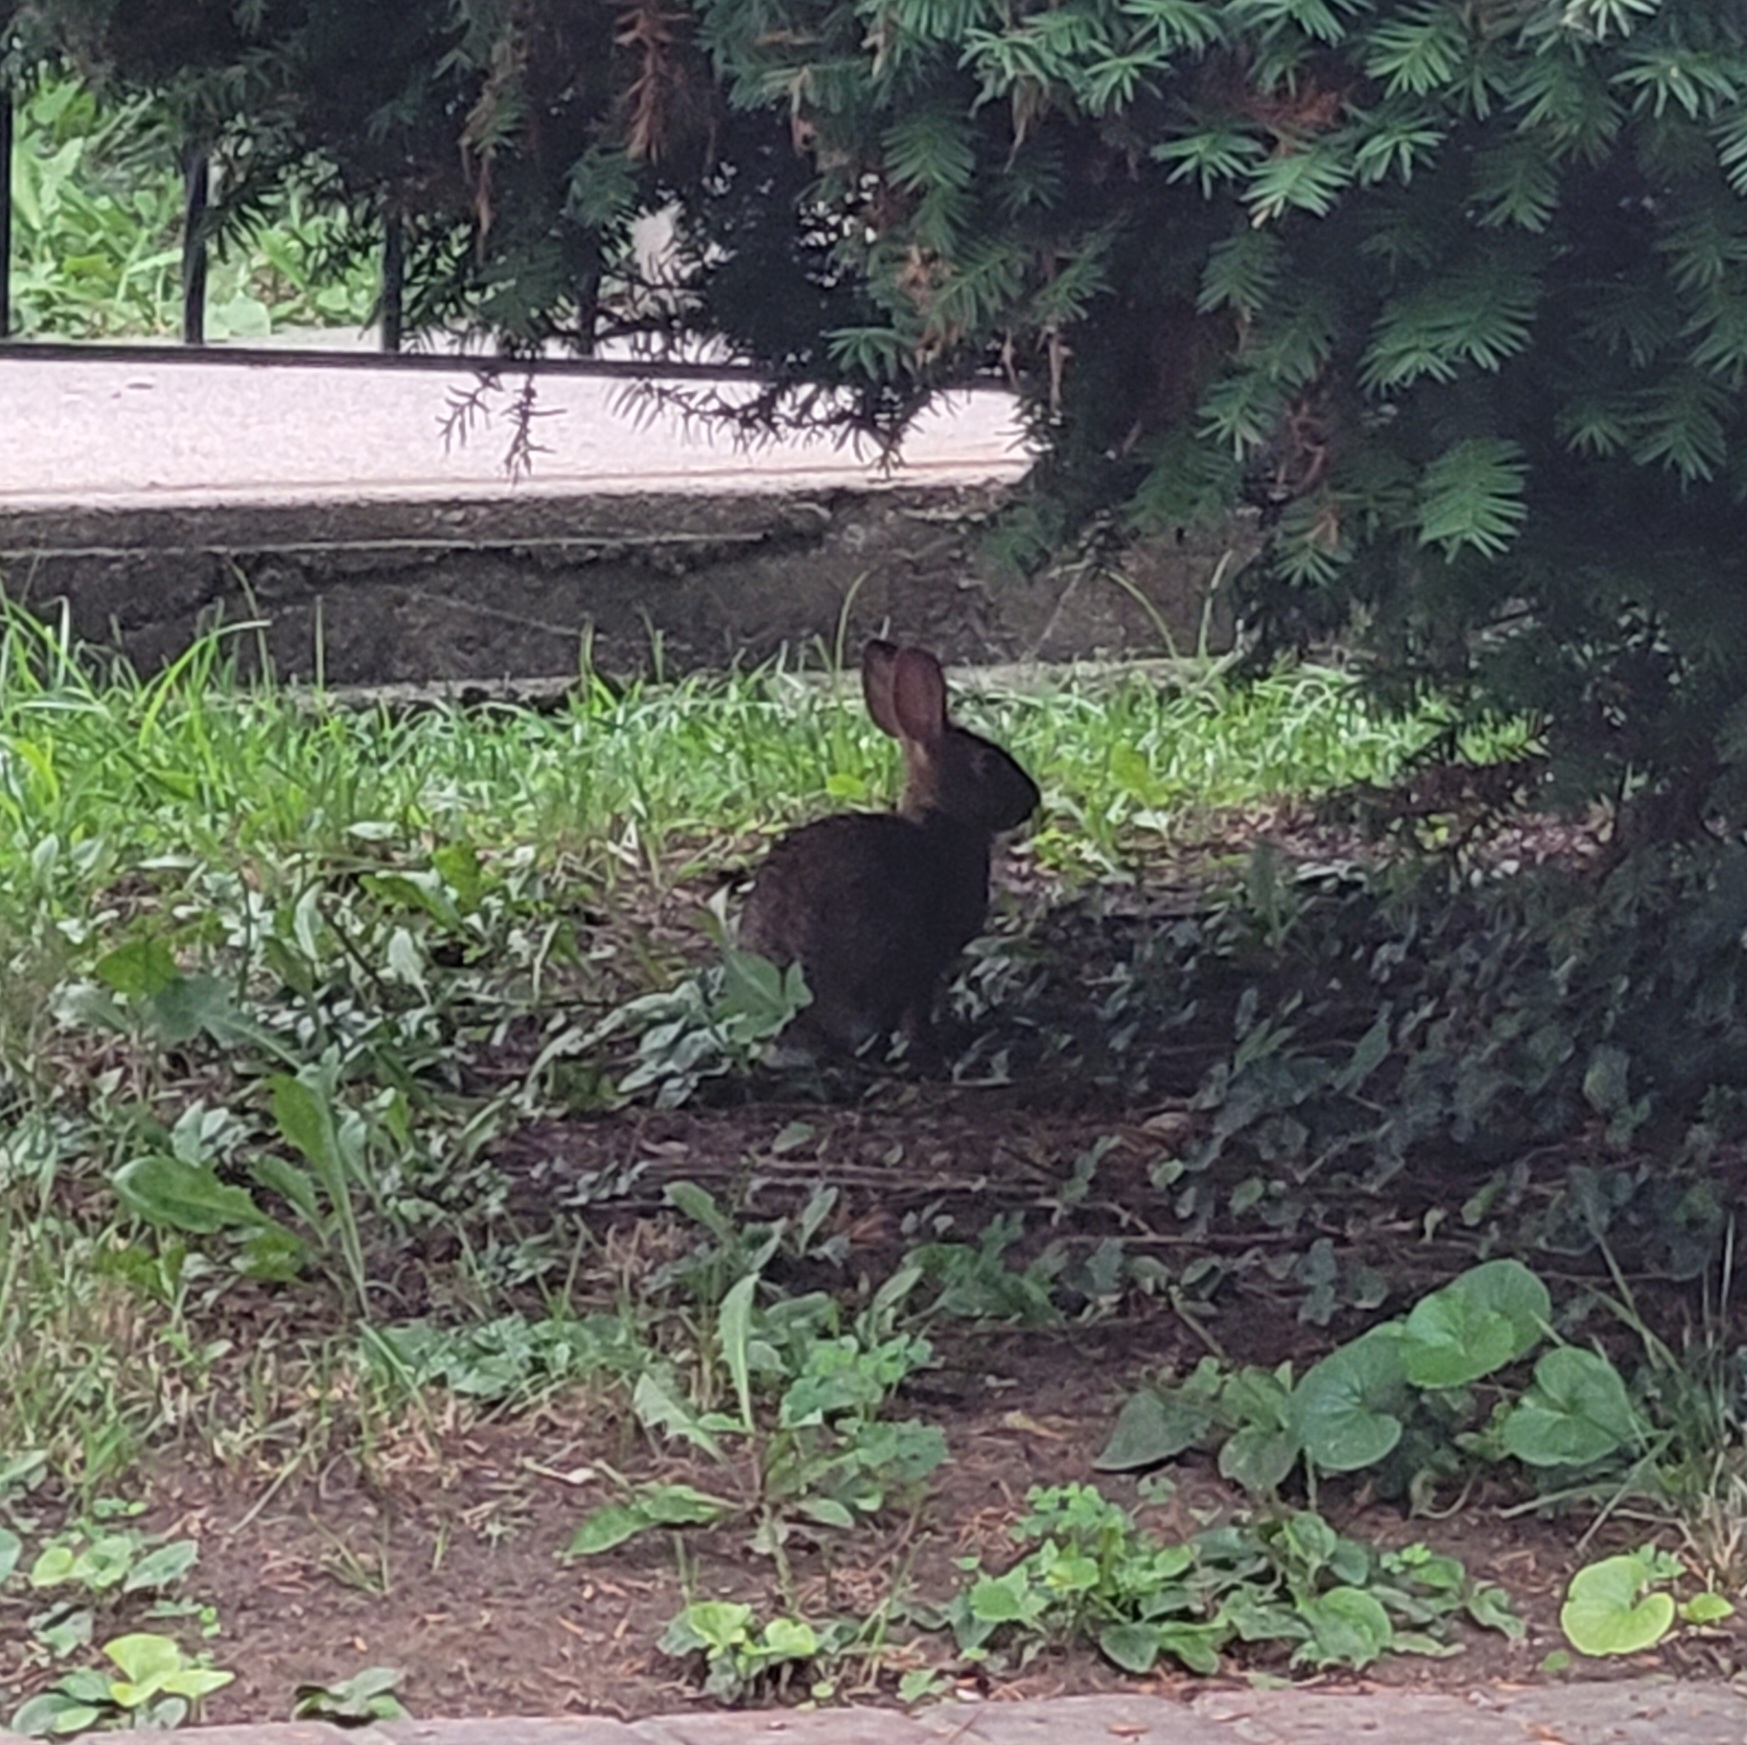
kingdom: Animalia
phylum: Chordata
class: Mammalia
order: Lagomorpha
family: Leporidae
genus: Sylvilagus
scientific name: Sylvilagus floridanus
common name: Eastern cottontail
